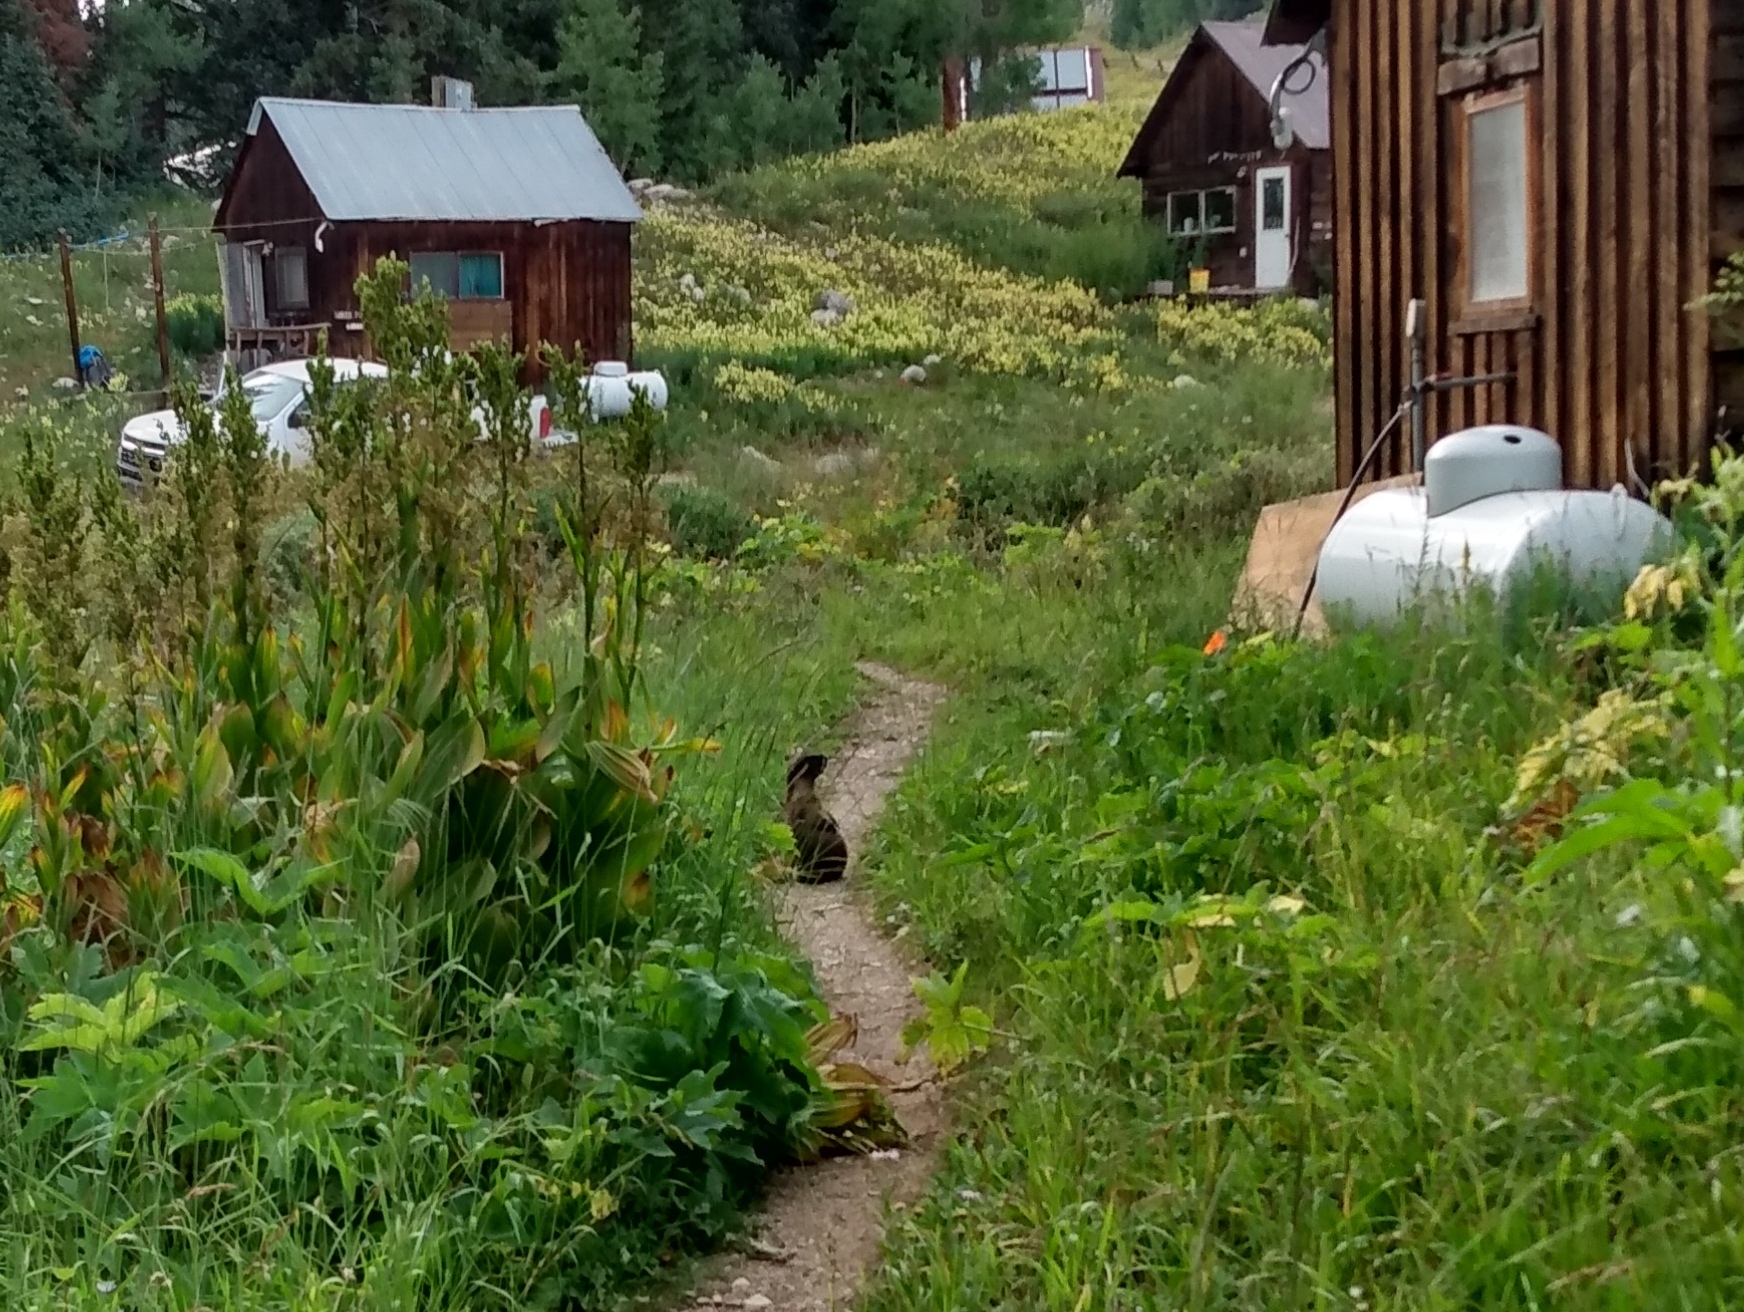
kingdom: Animalia
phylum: Chordata
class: Mammalia
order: Rodentia
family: Sciuridae
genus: Marmota
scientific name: Marmota flaviventris
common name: Yellow-bellied marmot
